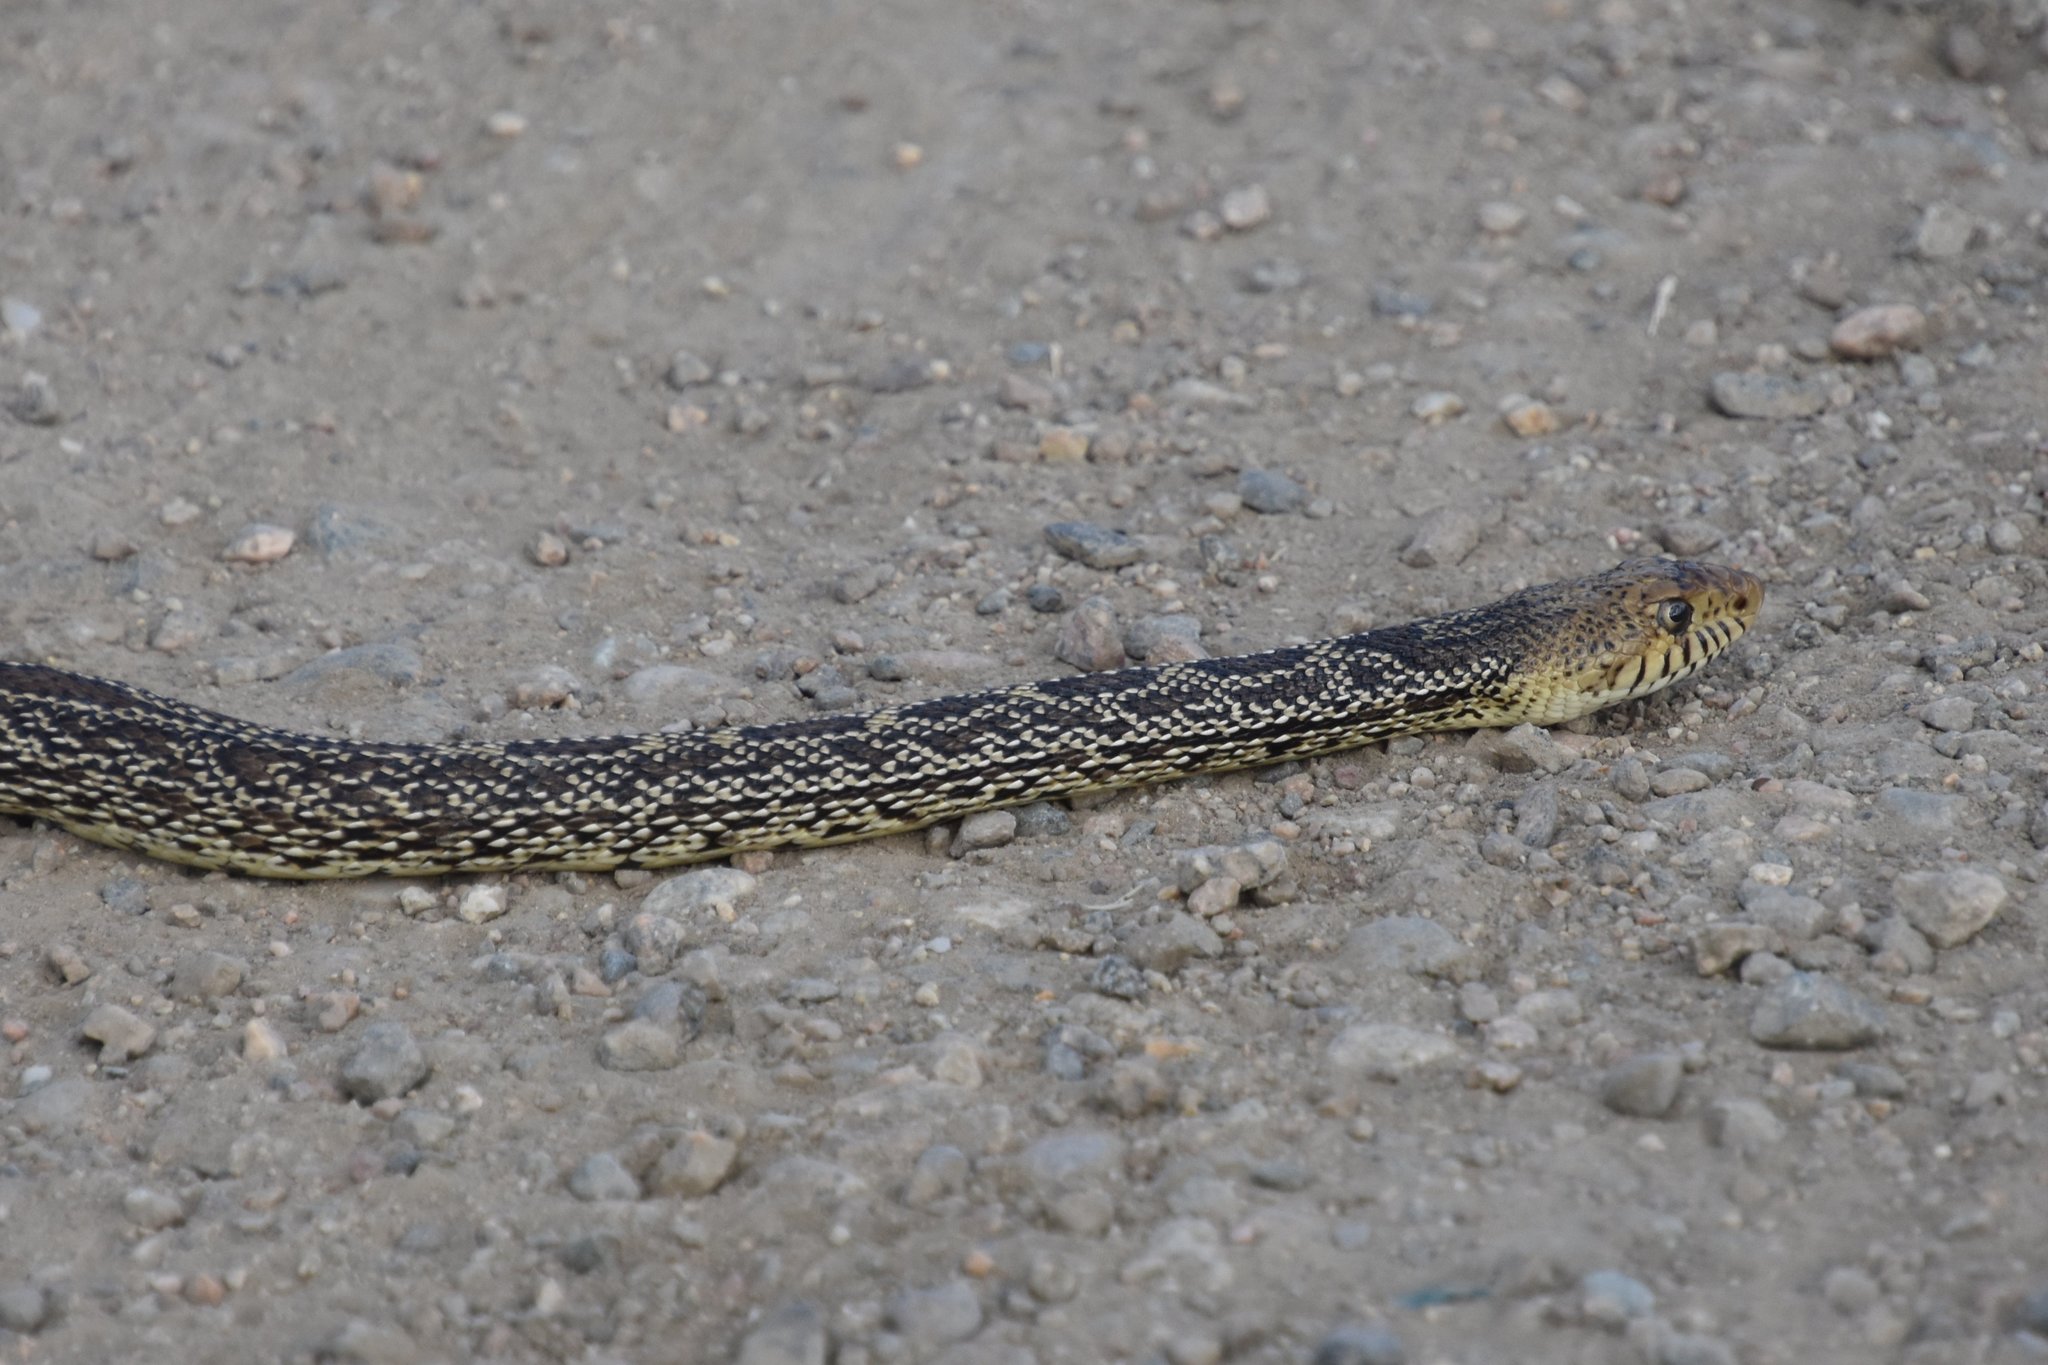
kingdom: Animalia
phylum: Chordata
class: Squamata
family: Colubridae
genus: Pituophis
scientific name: Pituophis catenifer
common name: Gopher snake
